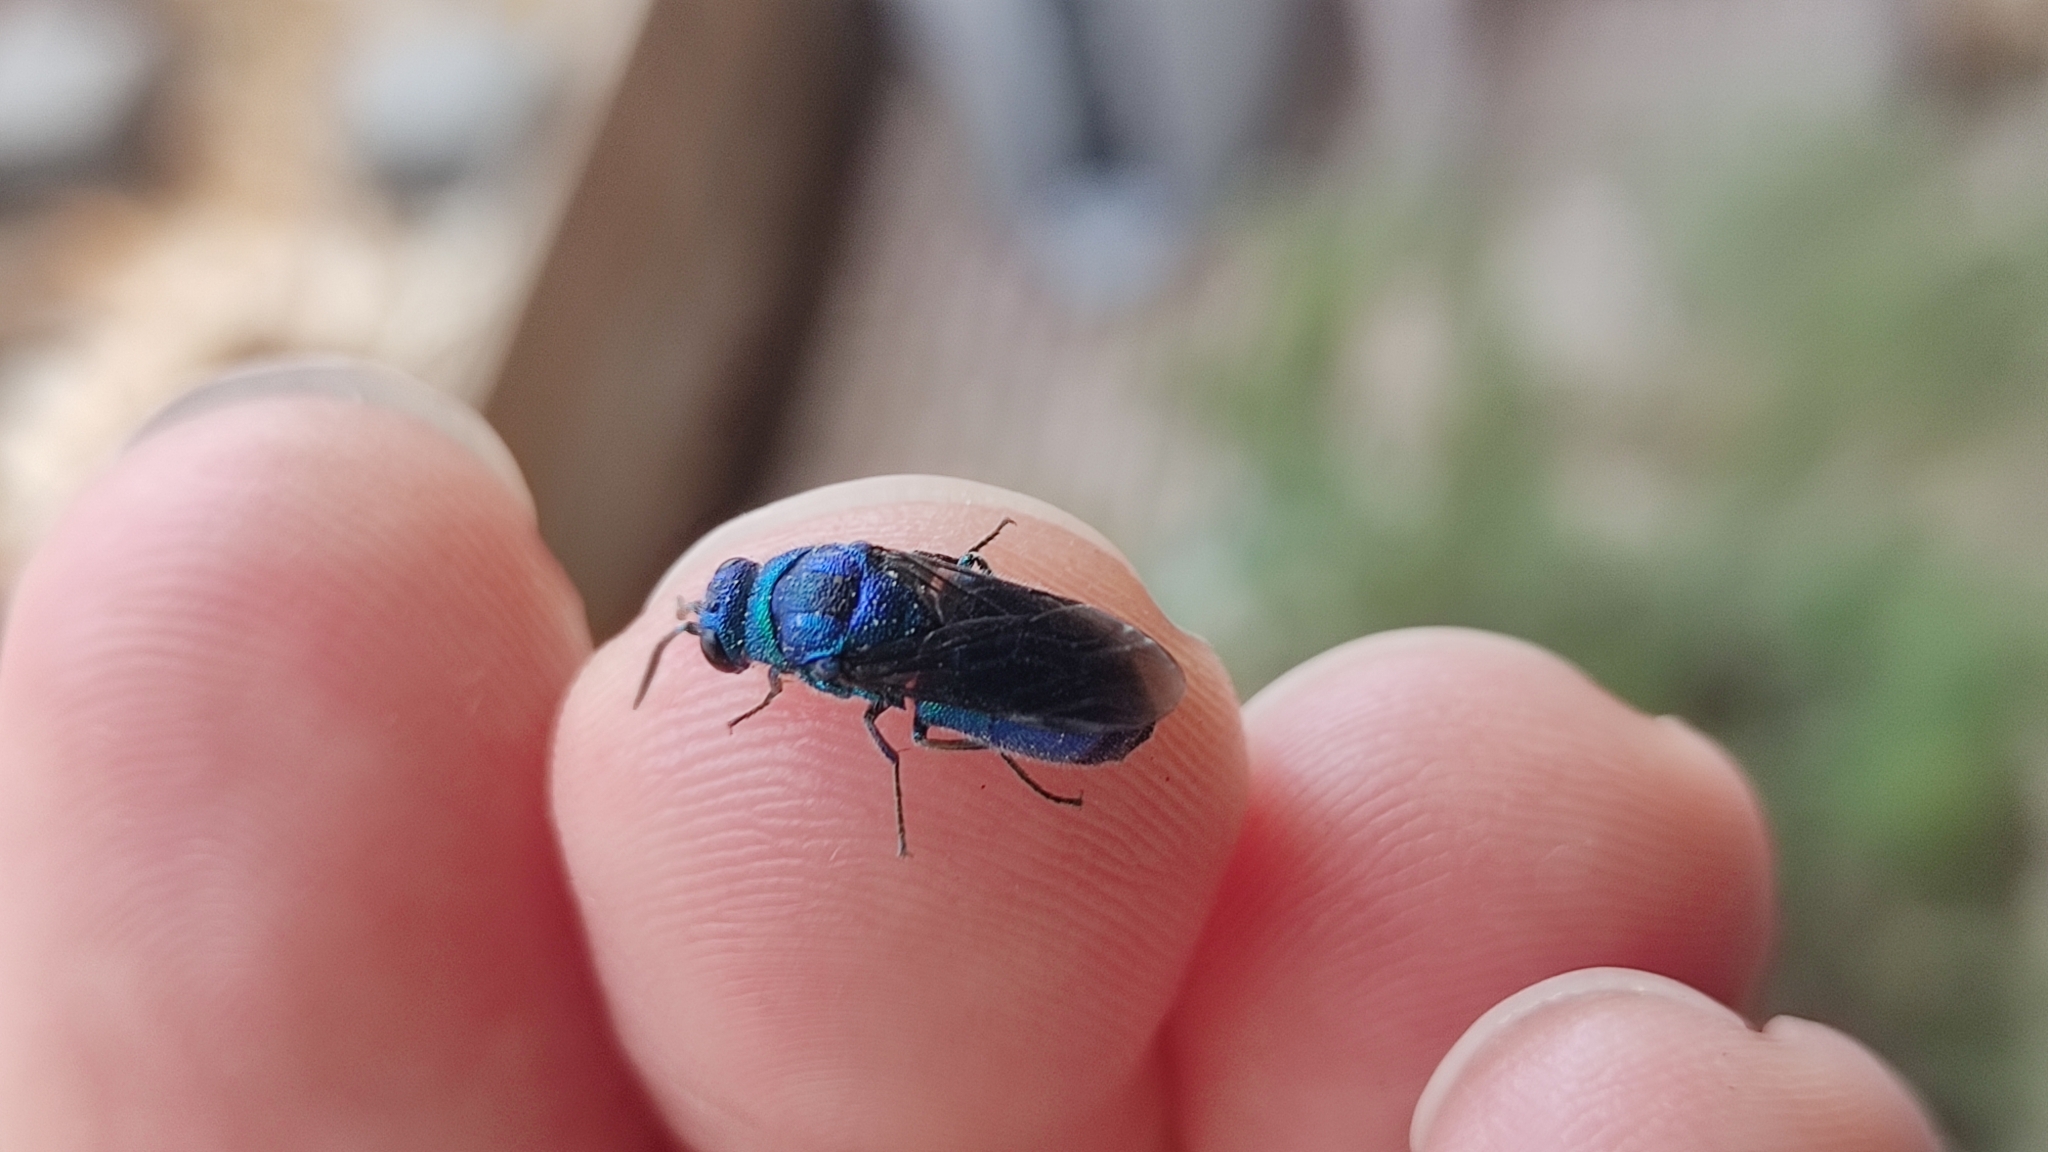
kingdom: Animalia
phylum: Arthropoda
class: Insecta
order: Hymenoptera
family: Chrysididae
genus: Chrysis
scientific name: Chrysis angolensis
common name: Cuckoo wasp
